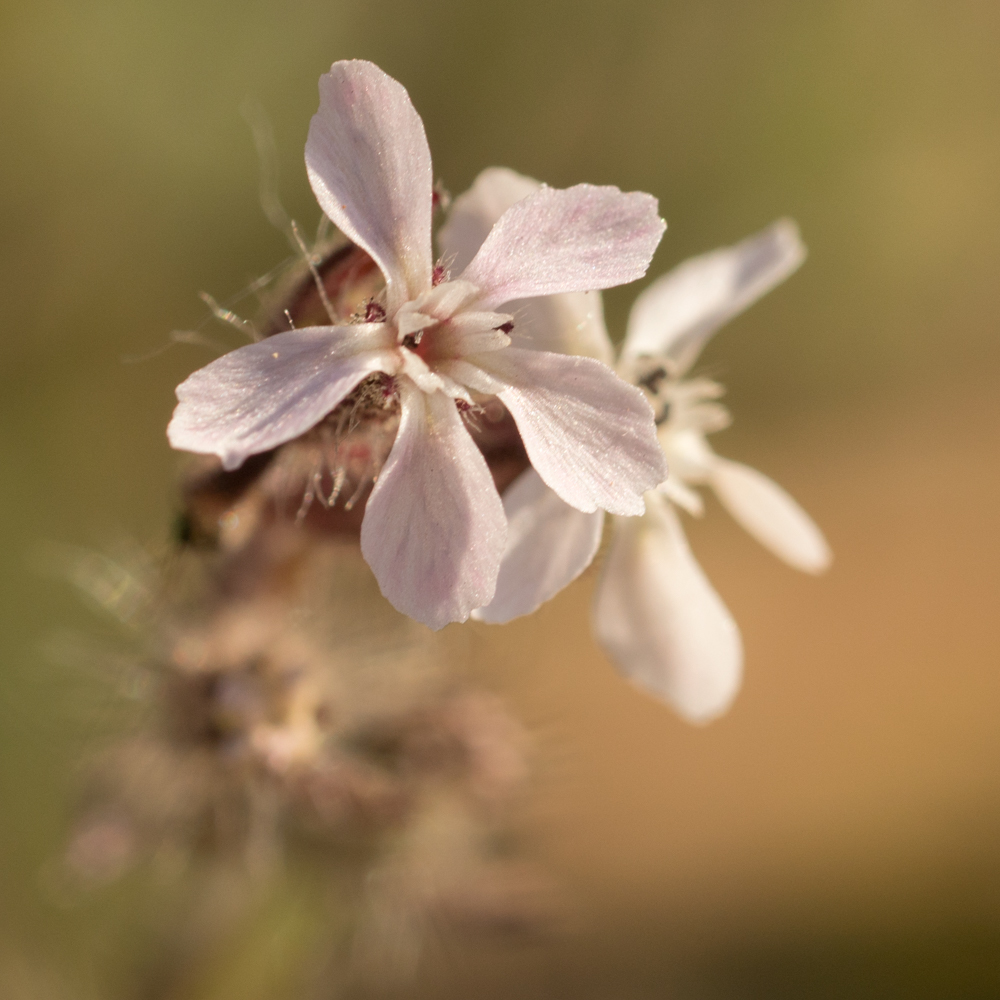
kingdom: Plantae
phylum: Tracheophyta
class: Magnoliopsida
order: Caryophyllales
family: Caryophyllaceae
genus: Silene
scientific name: Silene gallica
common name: Small-flowered catchfly
